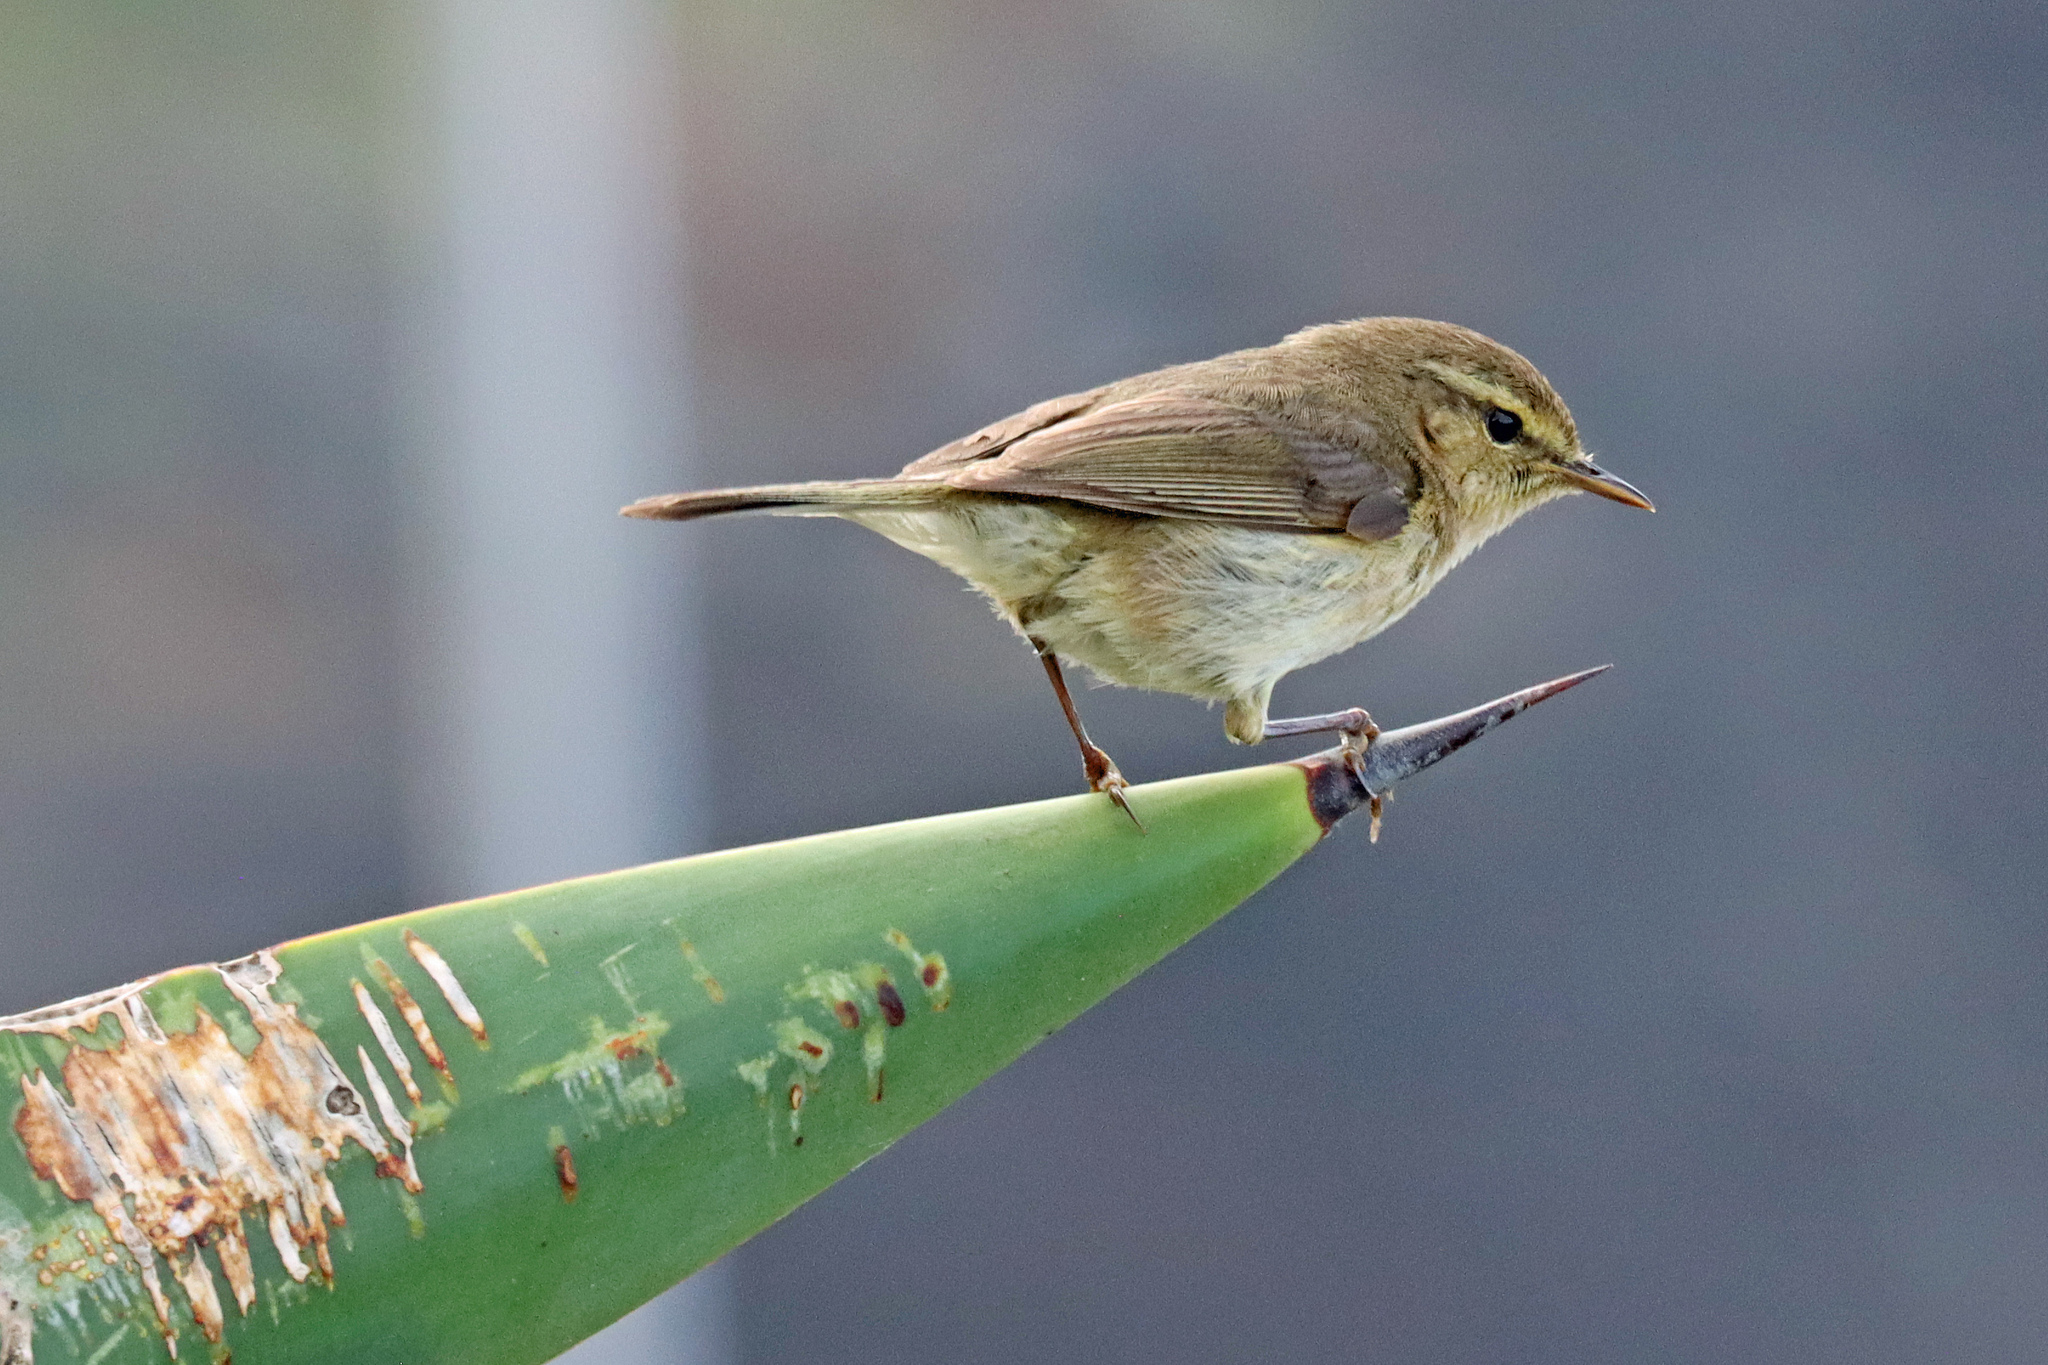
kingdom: Animalia
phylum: Chordata
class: Aves
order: Passeriformes
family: Phylloscopidae
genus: Phylloscopus
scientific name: Phylloscopus canariensis
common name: Canary islands chiffchaff
